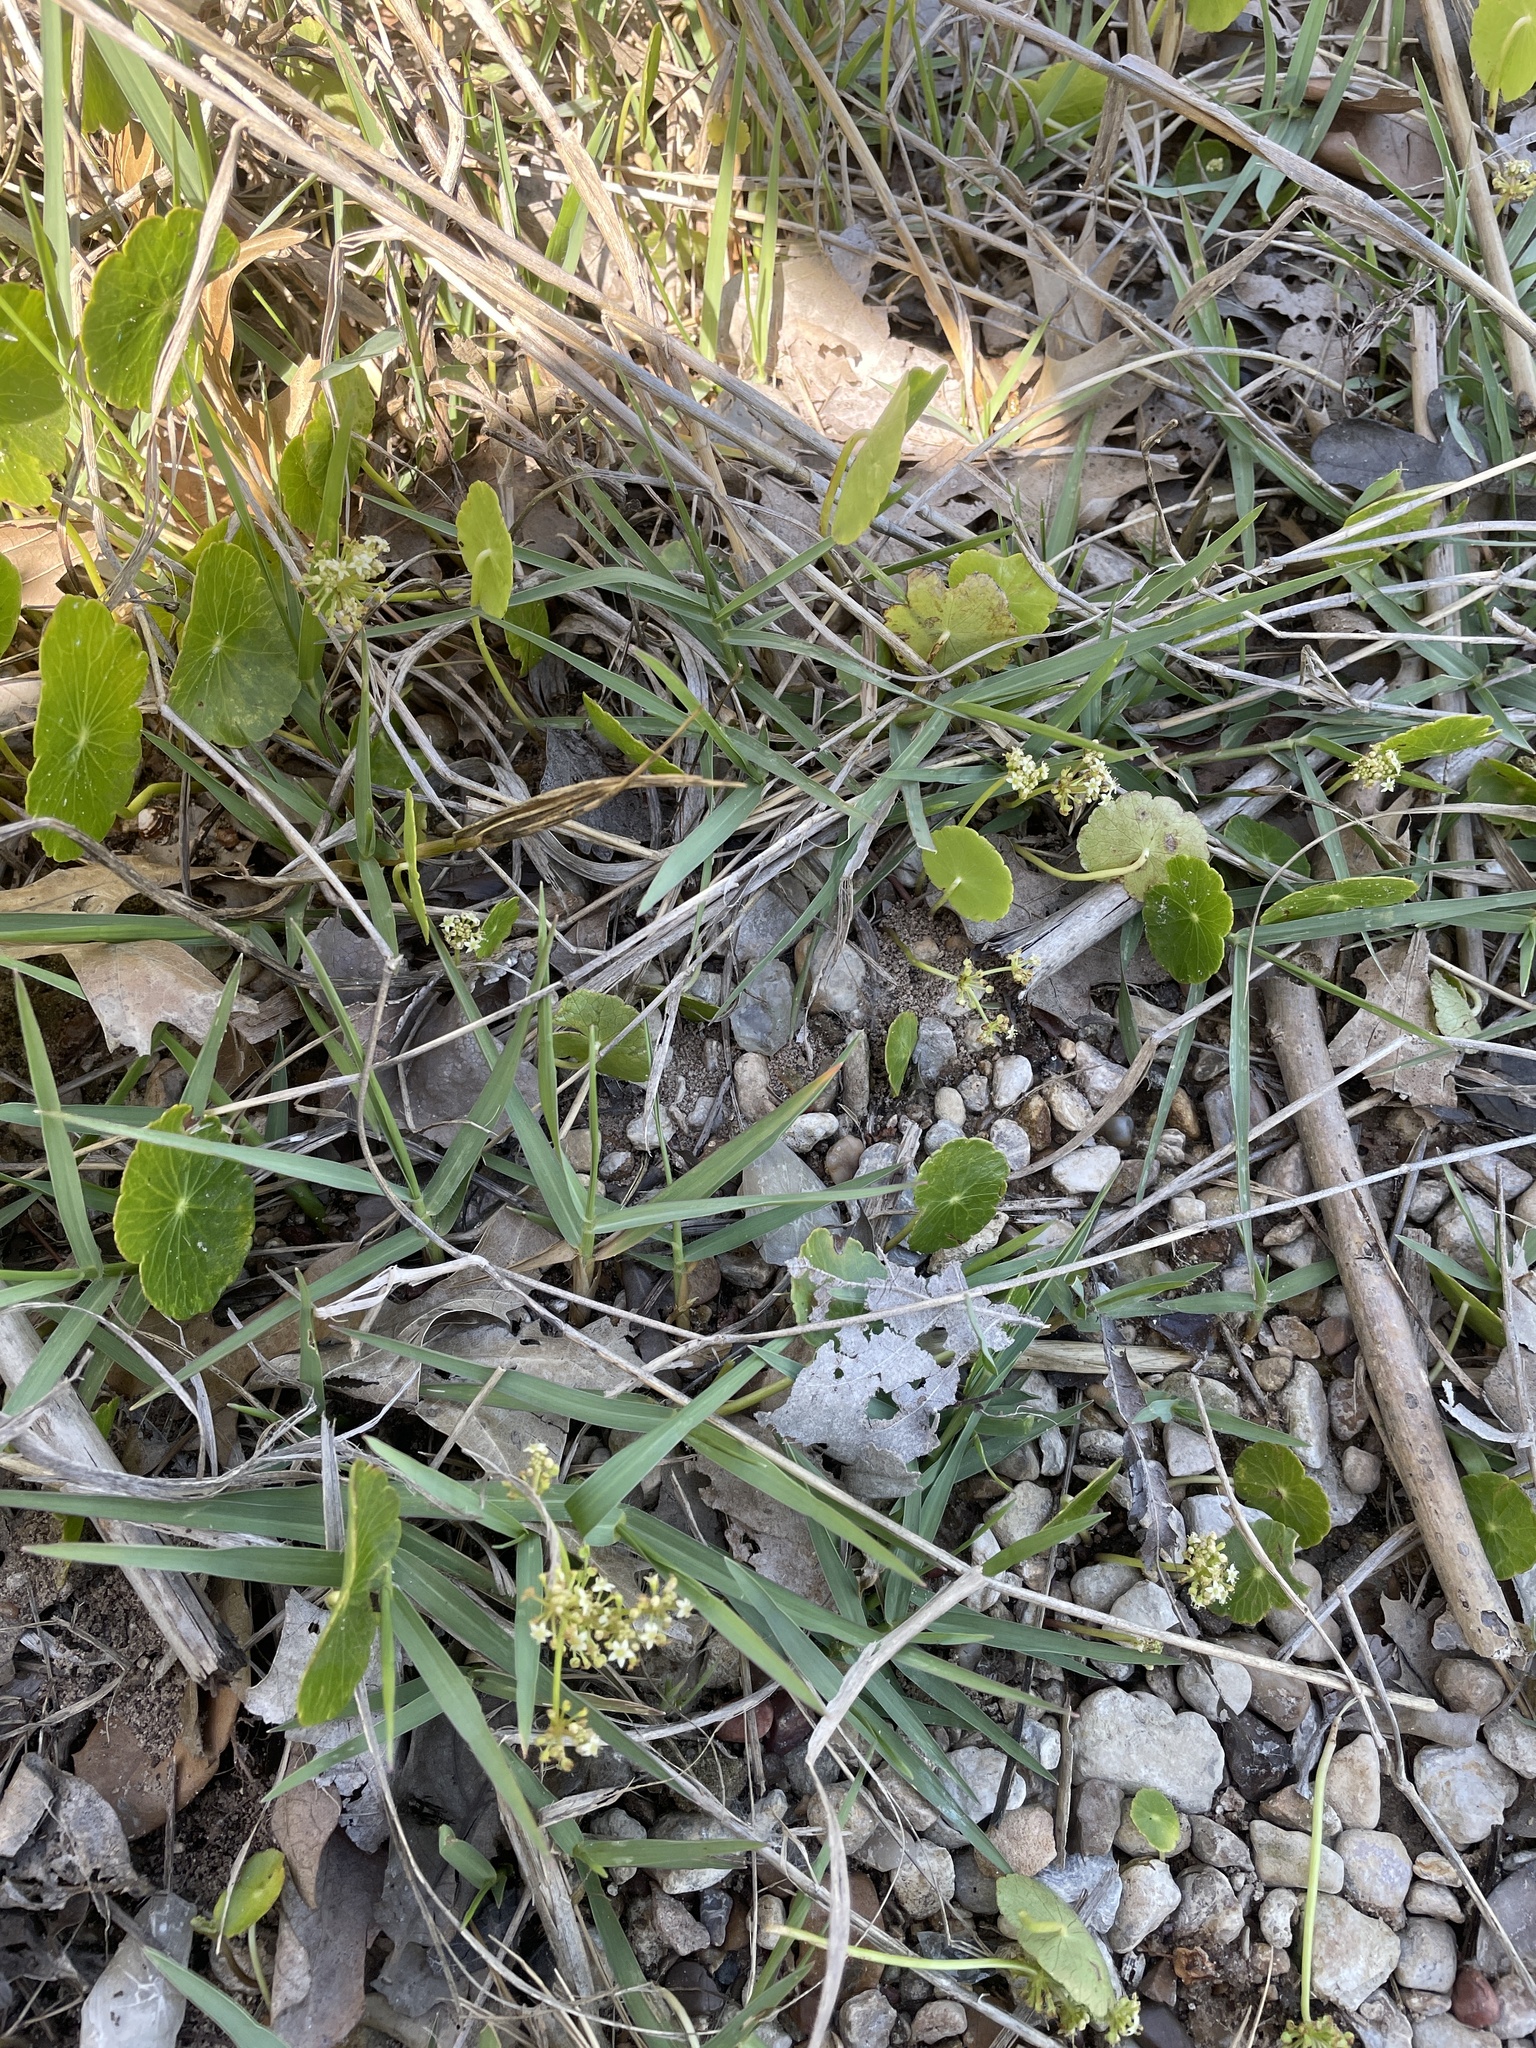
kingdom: Plantae
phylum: Tracheophyta
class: Magnoliopsida
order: Apiales
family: Araliaceae
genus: Hydrocotyle
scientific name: Hydrocotyle prolifera
